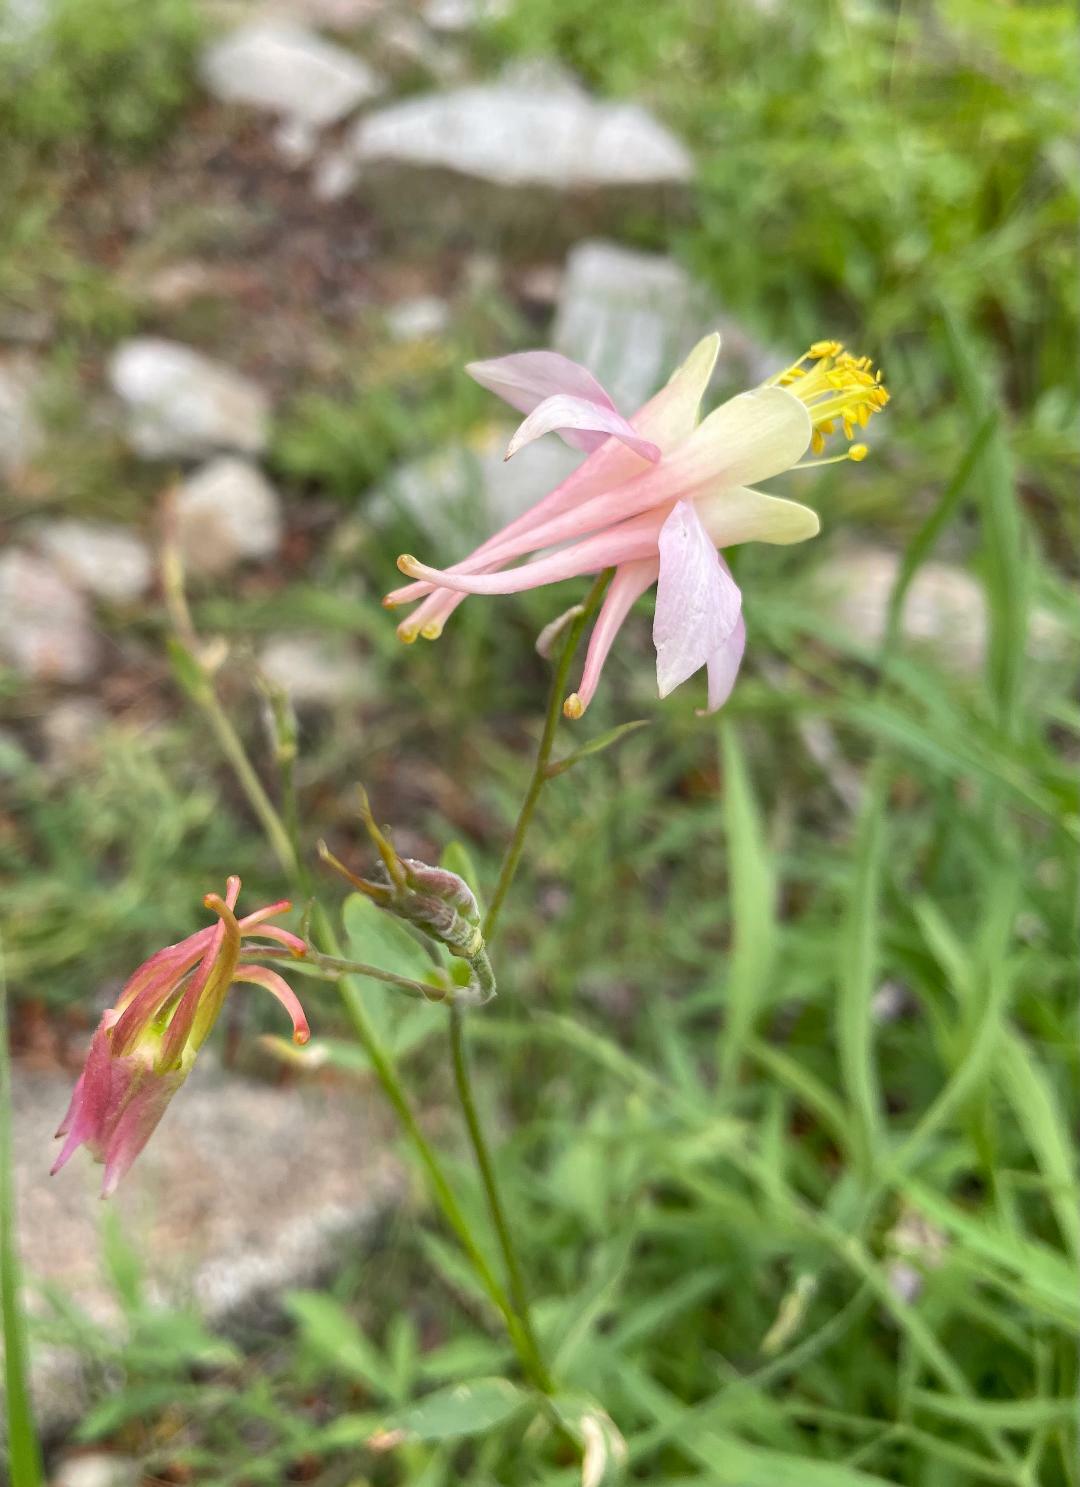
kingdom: Plantae
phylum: Tracheophyta
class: Magnoliopsida
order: Ranunculales
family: Ranunculaceae
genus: Aquilegia
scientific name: Aquilegia pubescens
